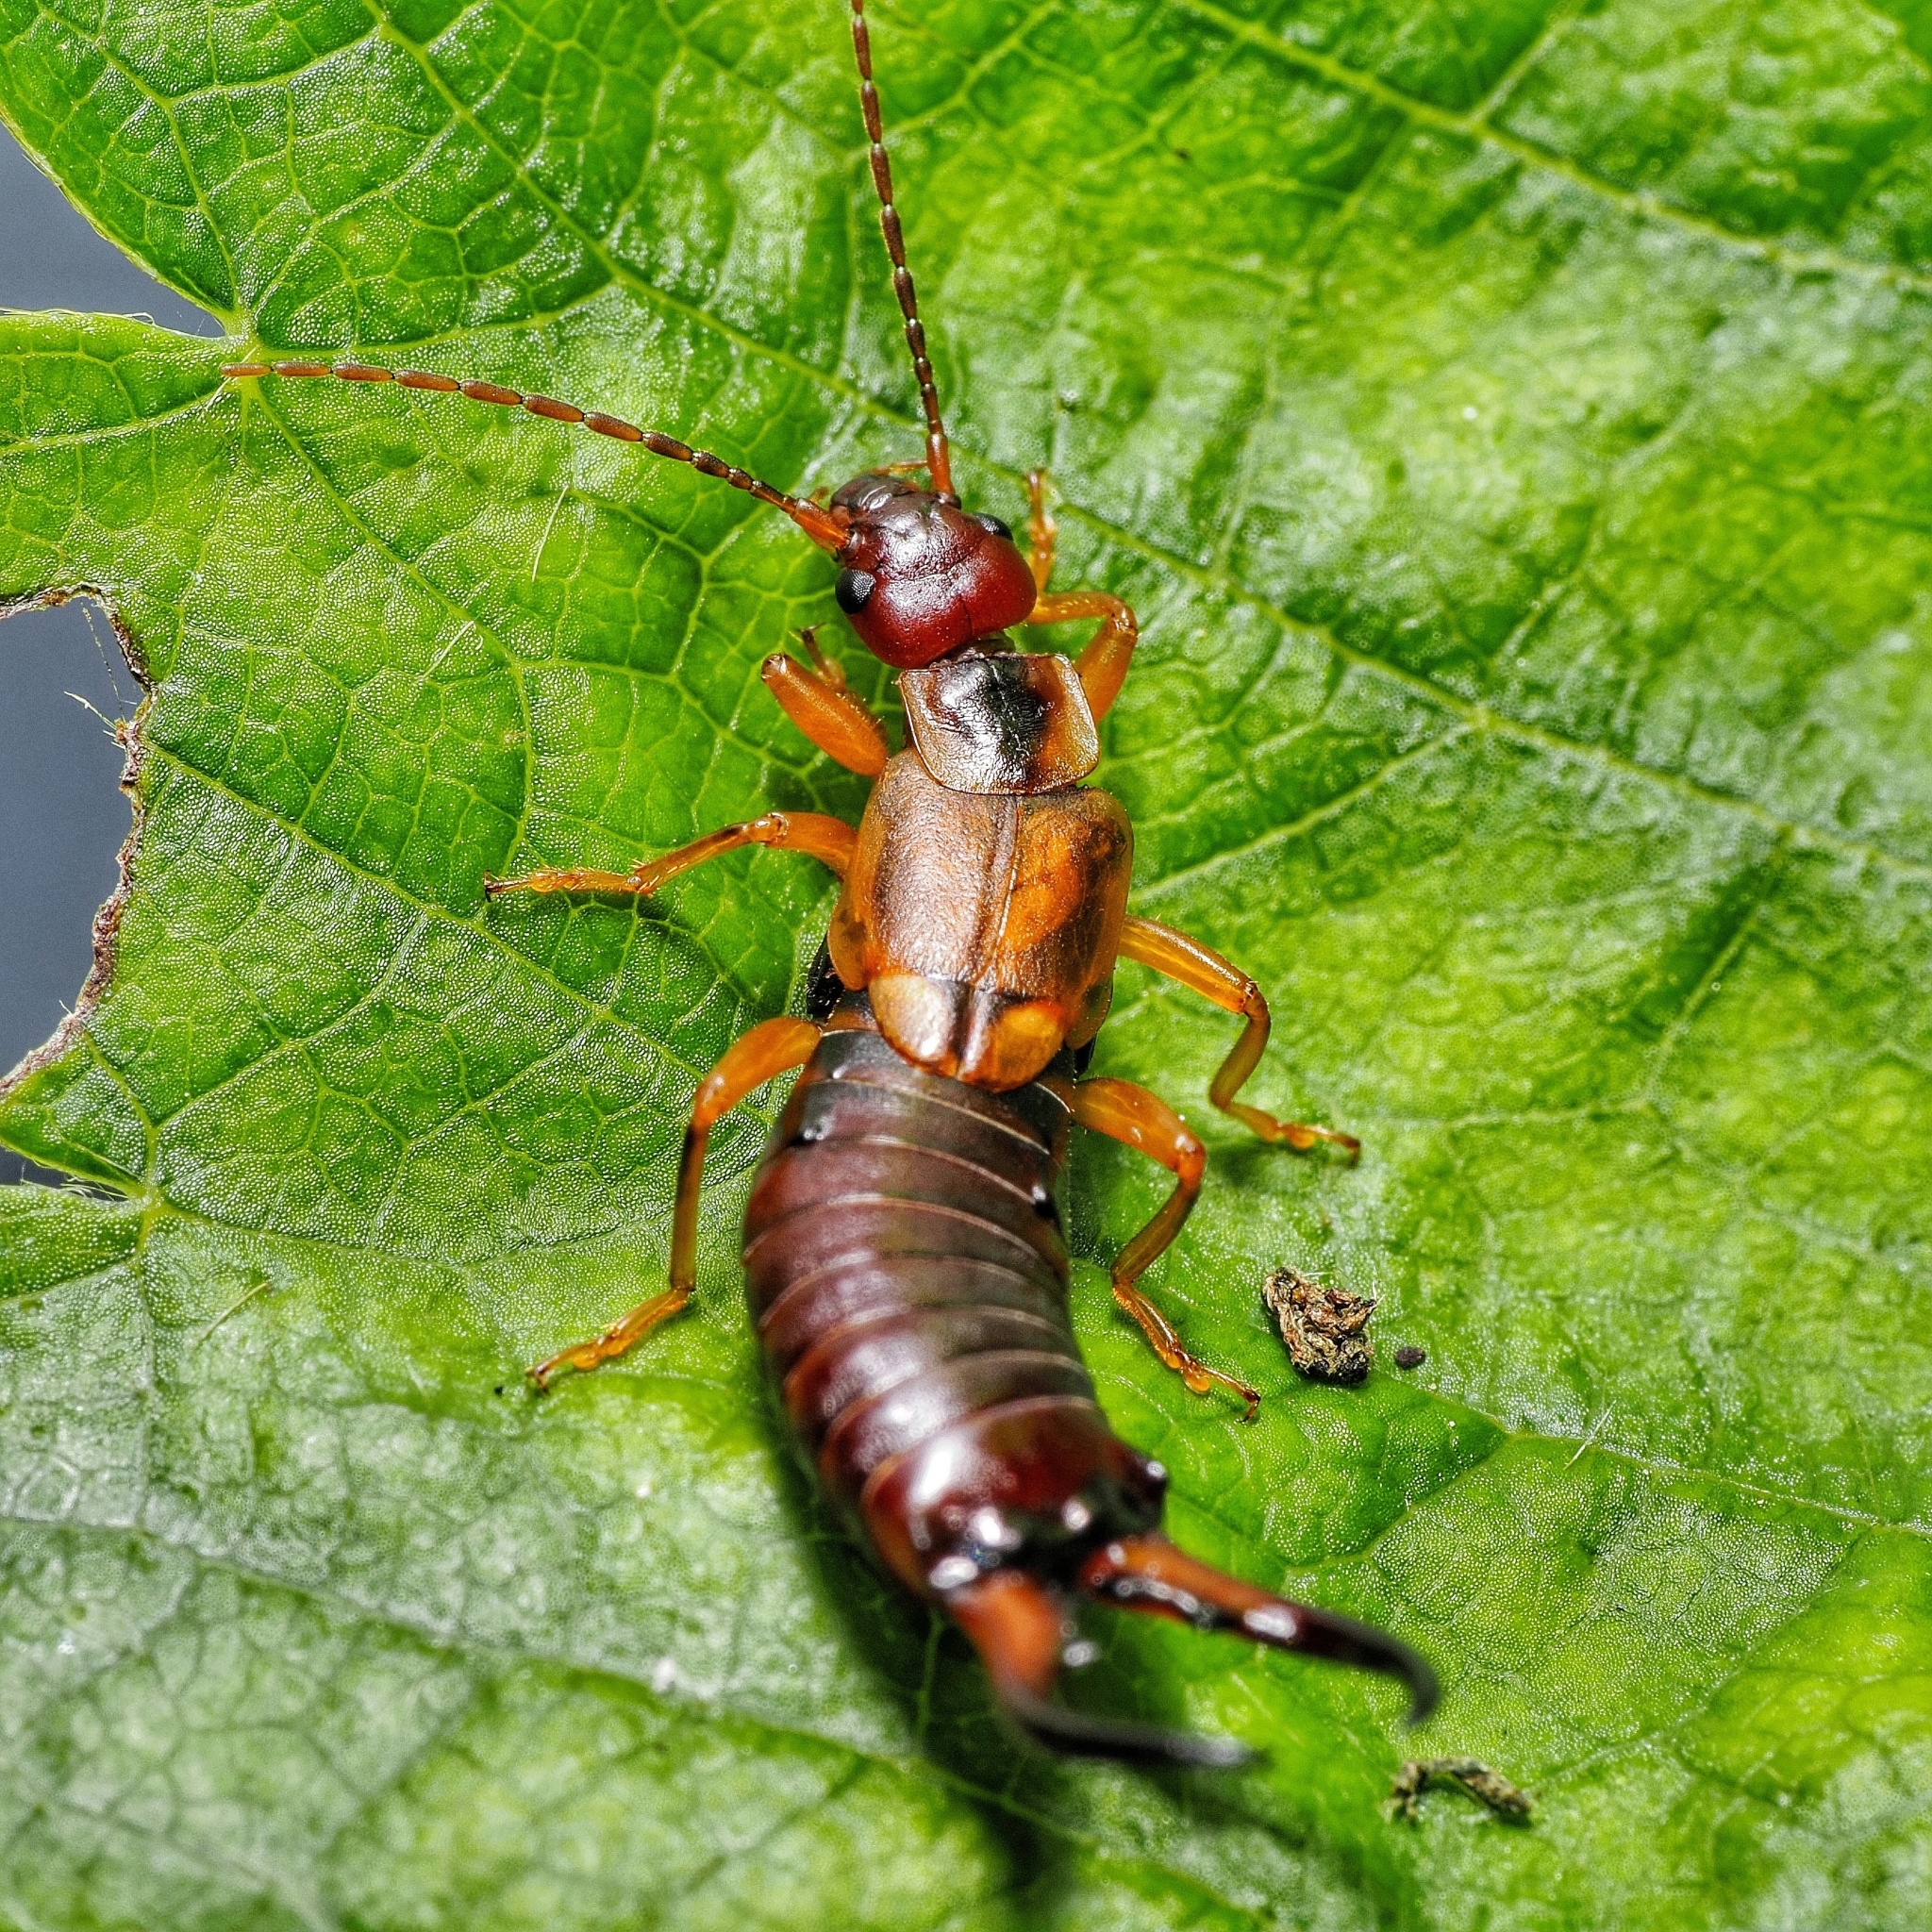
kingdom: Animalia
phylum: Arthropoda
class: Insecta
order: Dermaptera
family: Forficulidae
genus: Forficula
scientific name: Forficula
